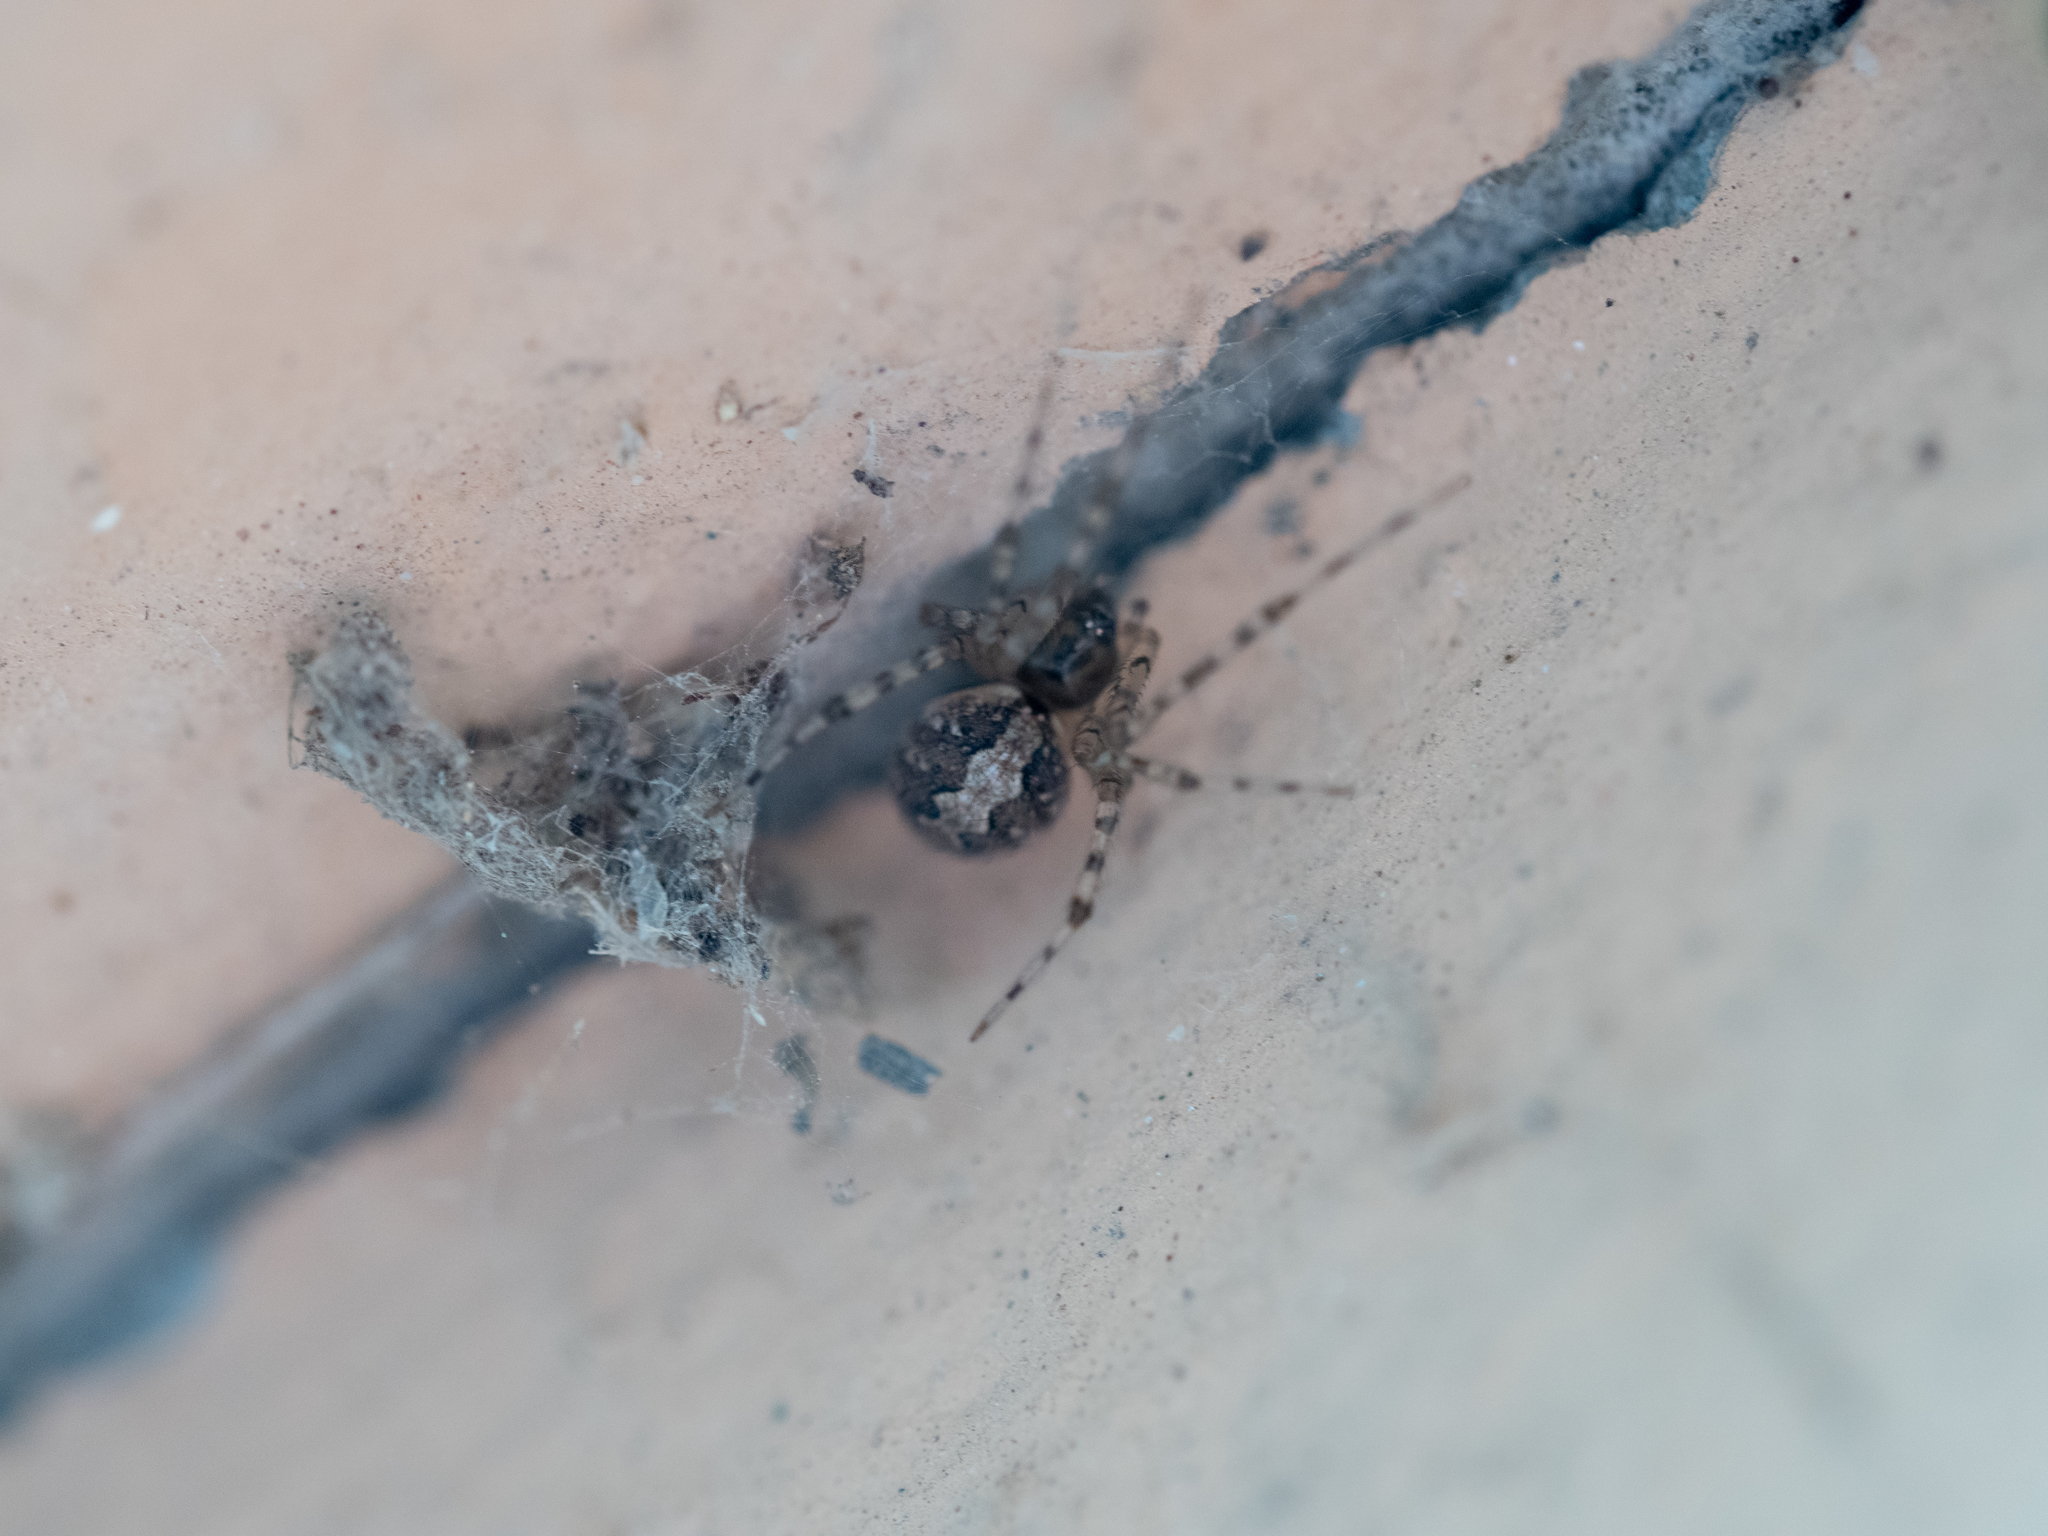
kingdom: Animalia
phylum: Arthropoda
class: Arachnida
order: Araneae
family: Theridiidae
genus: Theridion
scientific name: Theridion melanurum
